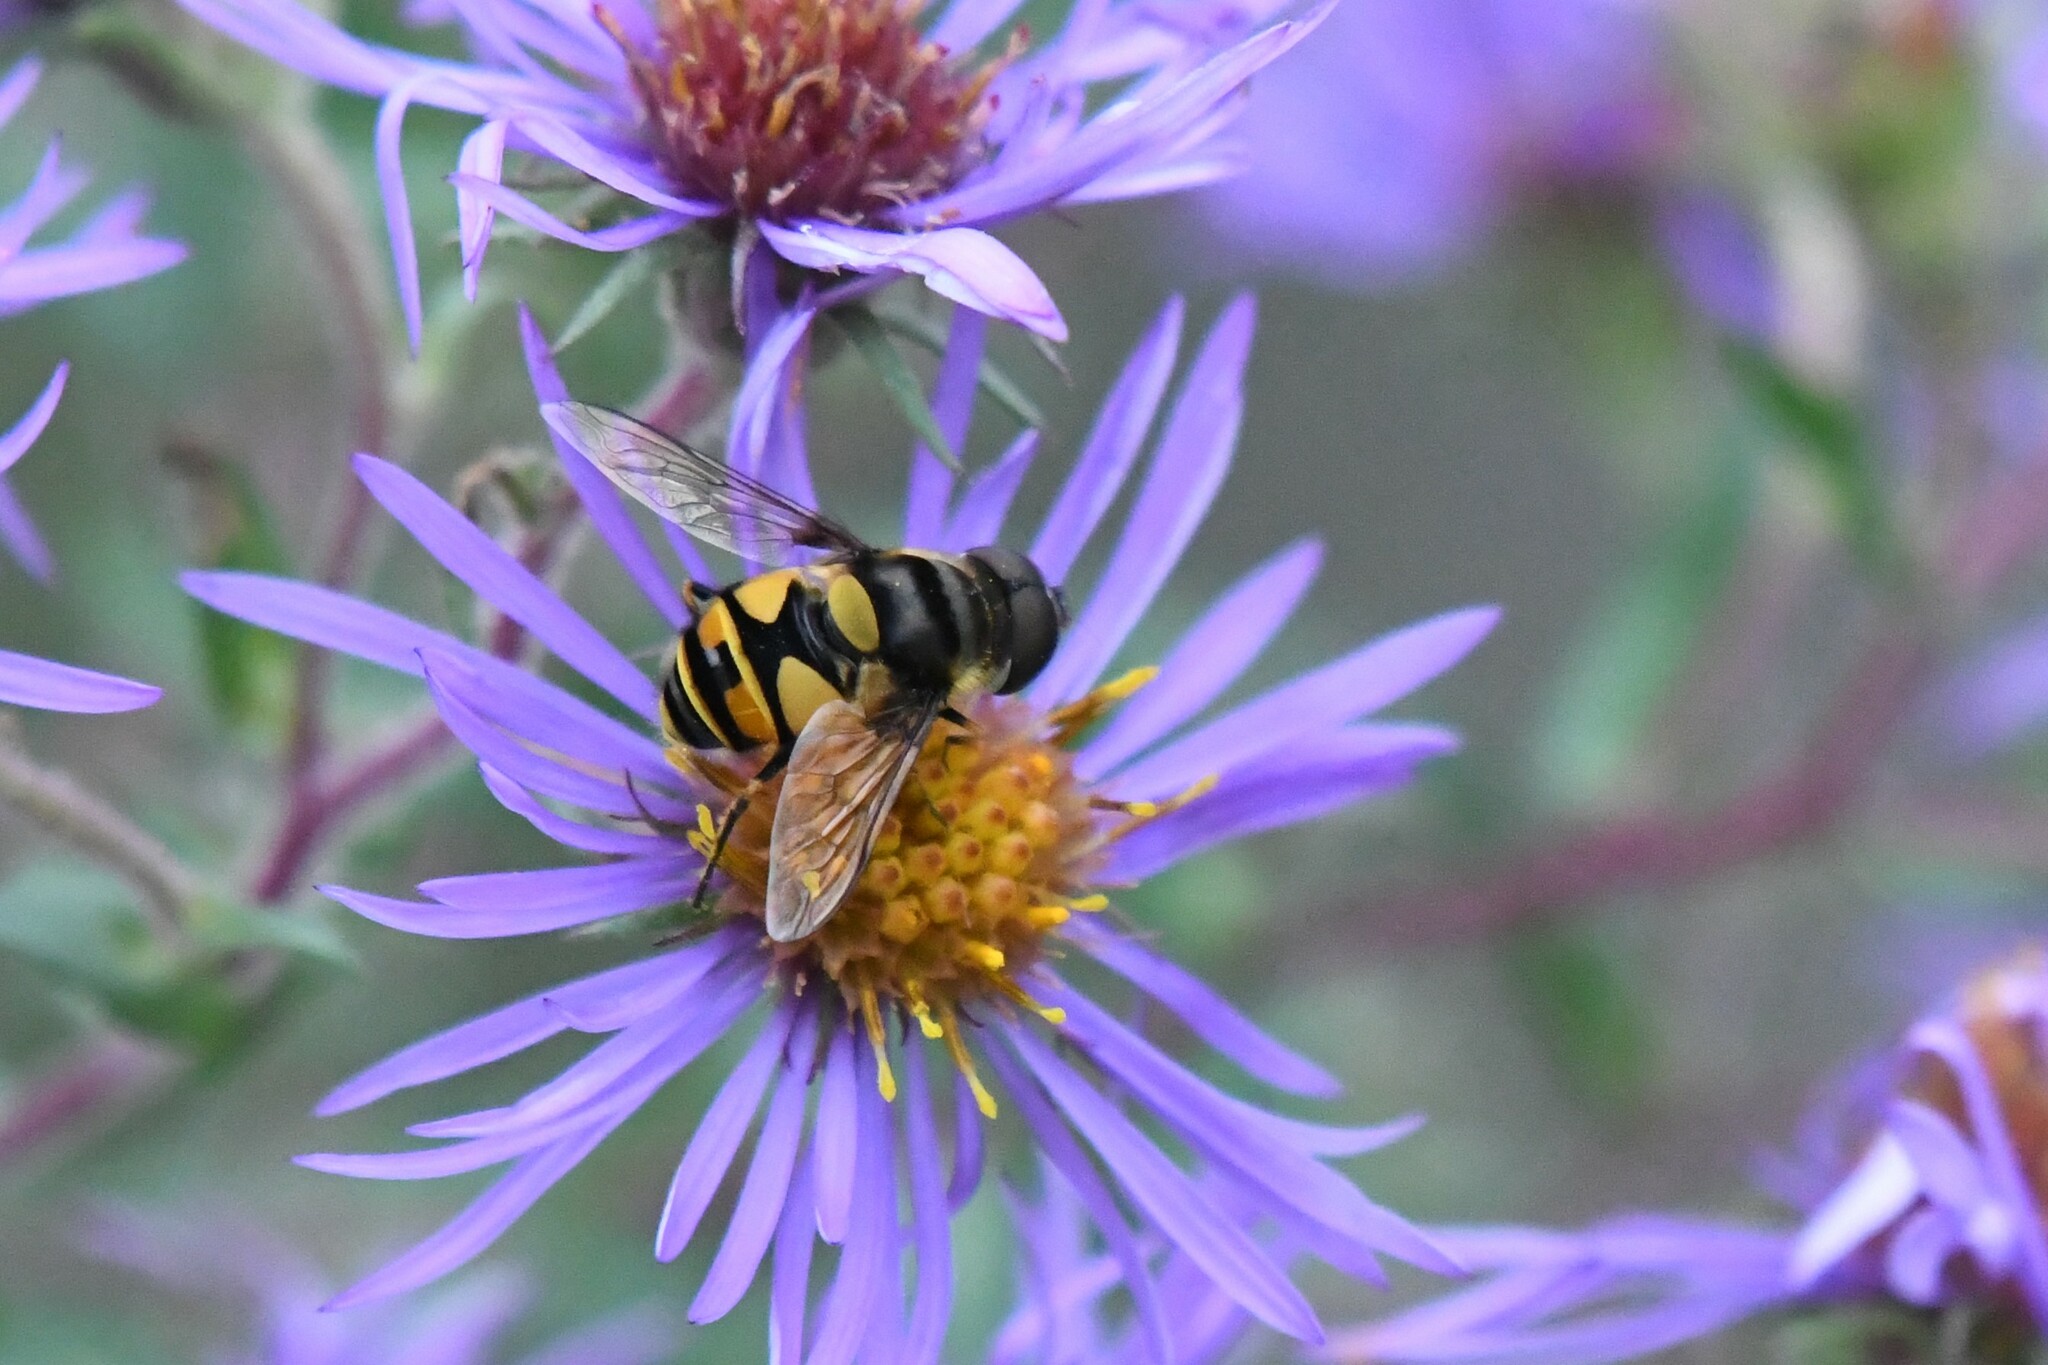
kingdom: Animalia
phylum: Arthropoda
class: Insecta
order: Diptera
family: Syrphidae
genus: Eristalis
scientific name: Eristalis transversa
